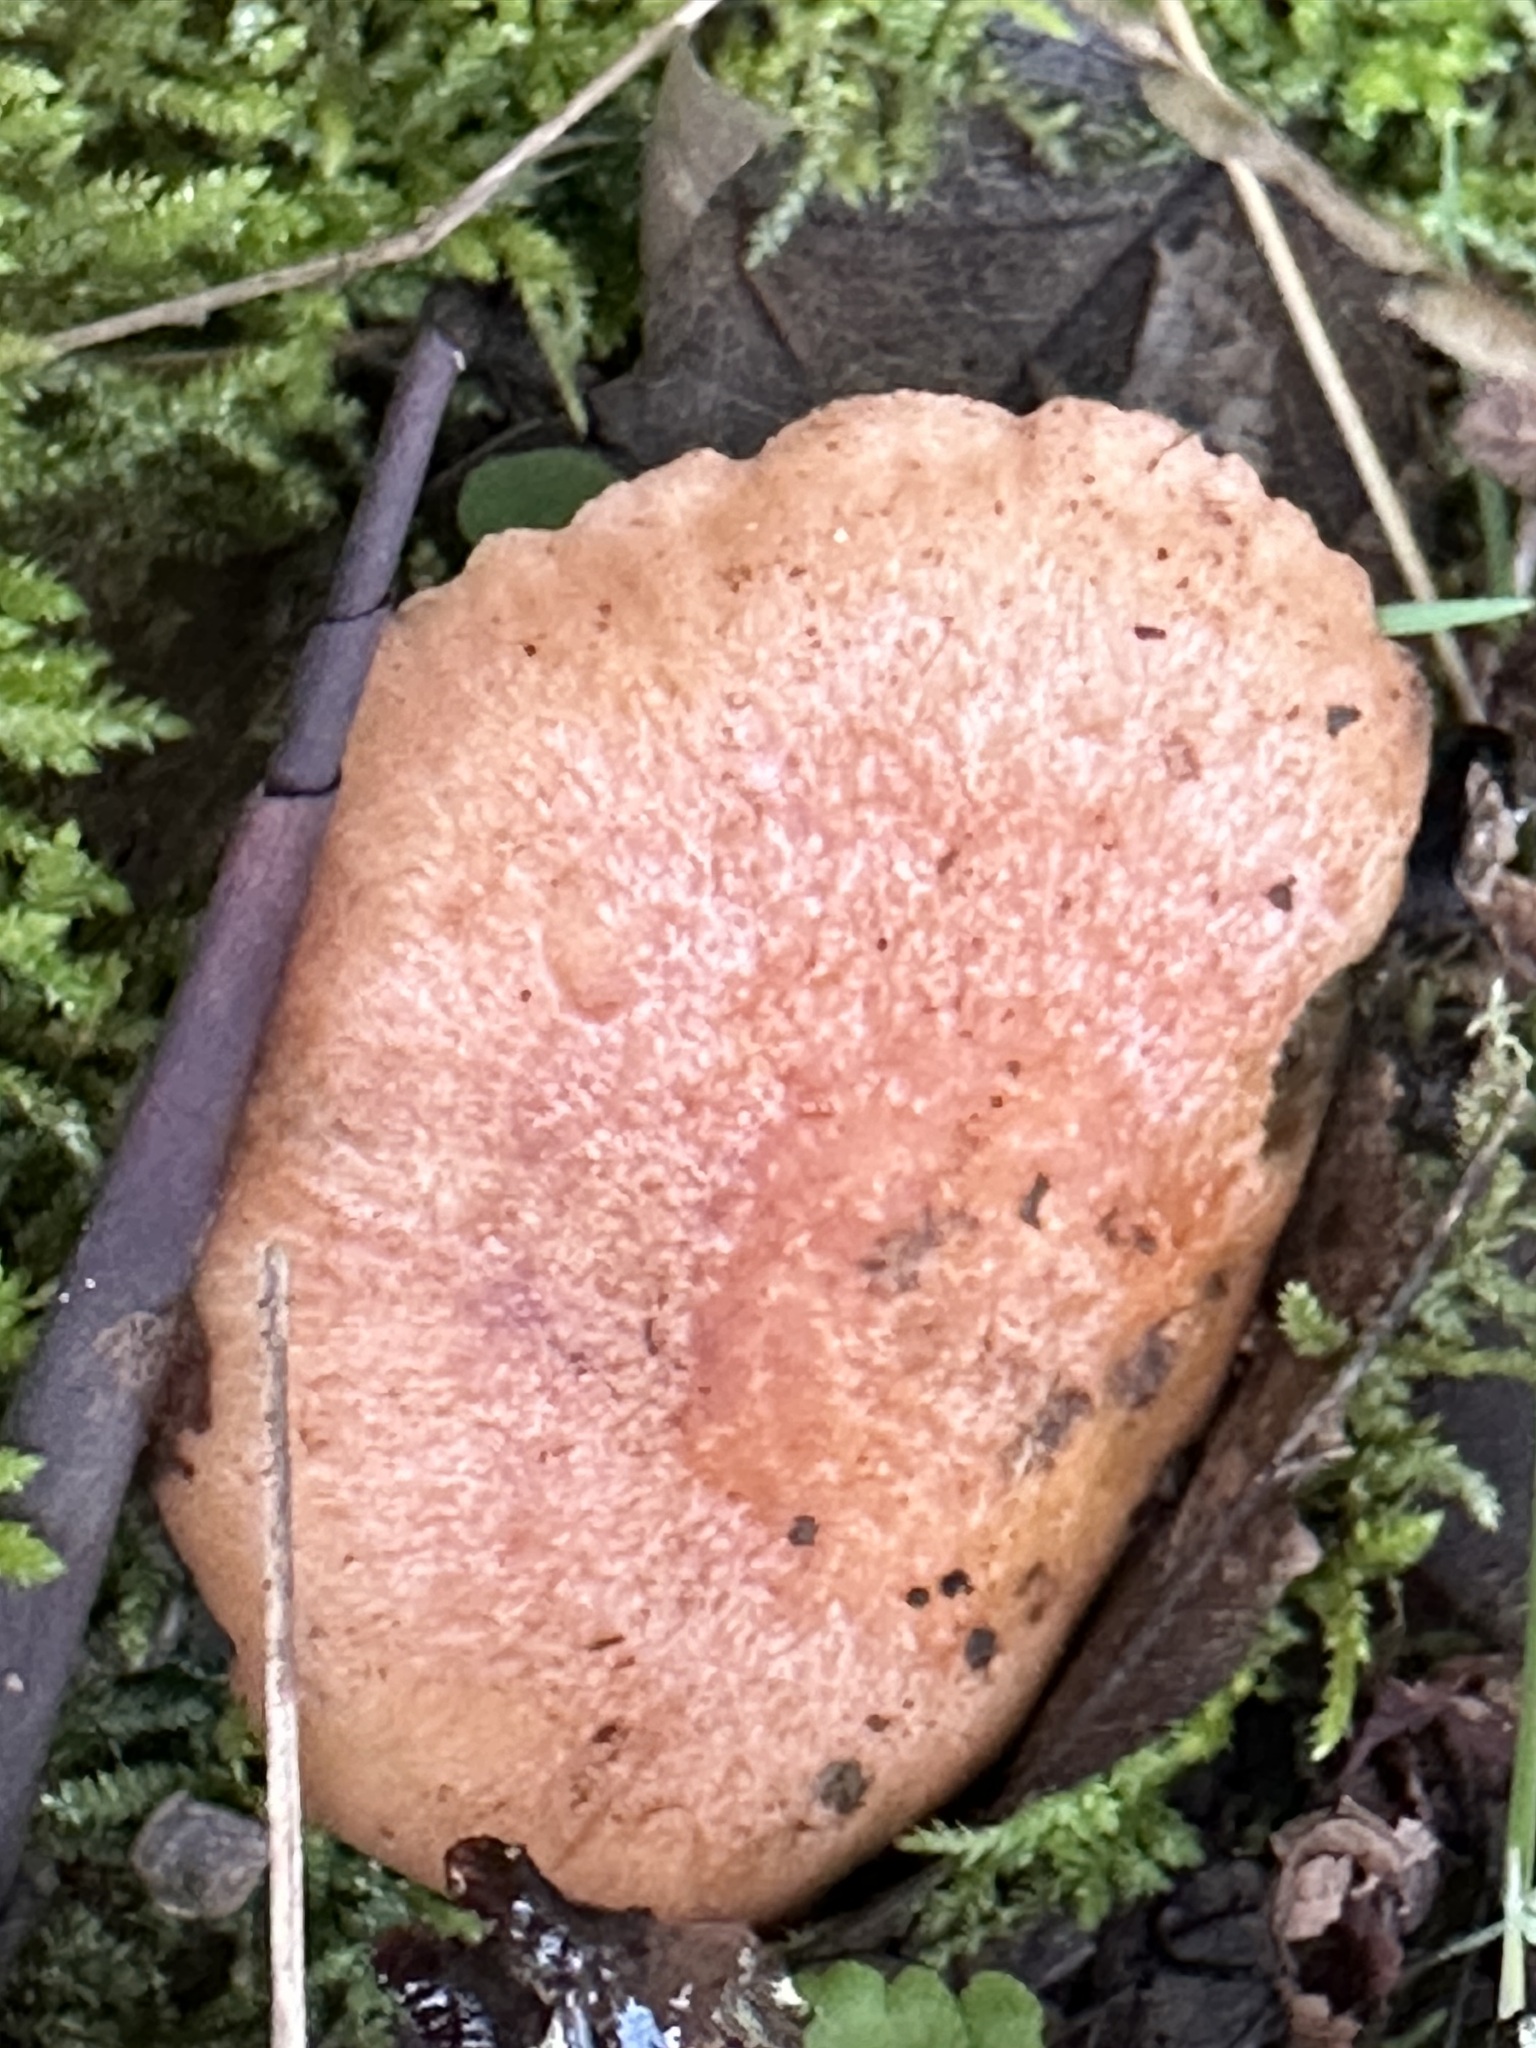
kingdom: Fungi
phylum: Basidiomycota
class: Agaricomycetes
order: Russulales
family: Russulaceae
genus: Lactarius
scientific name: Lactarius xanthogalactus
